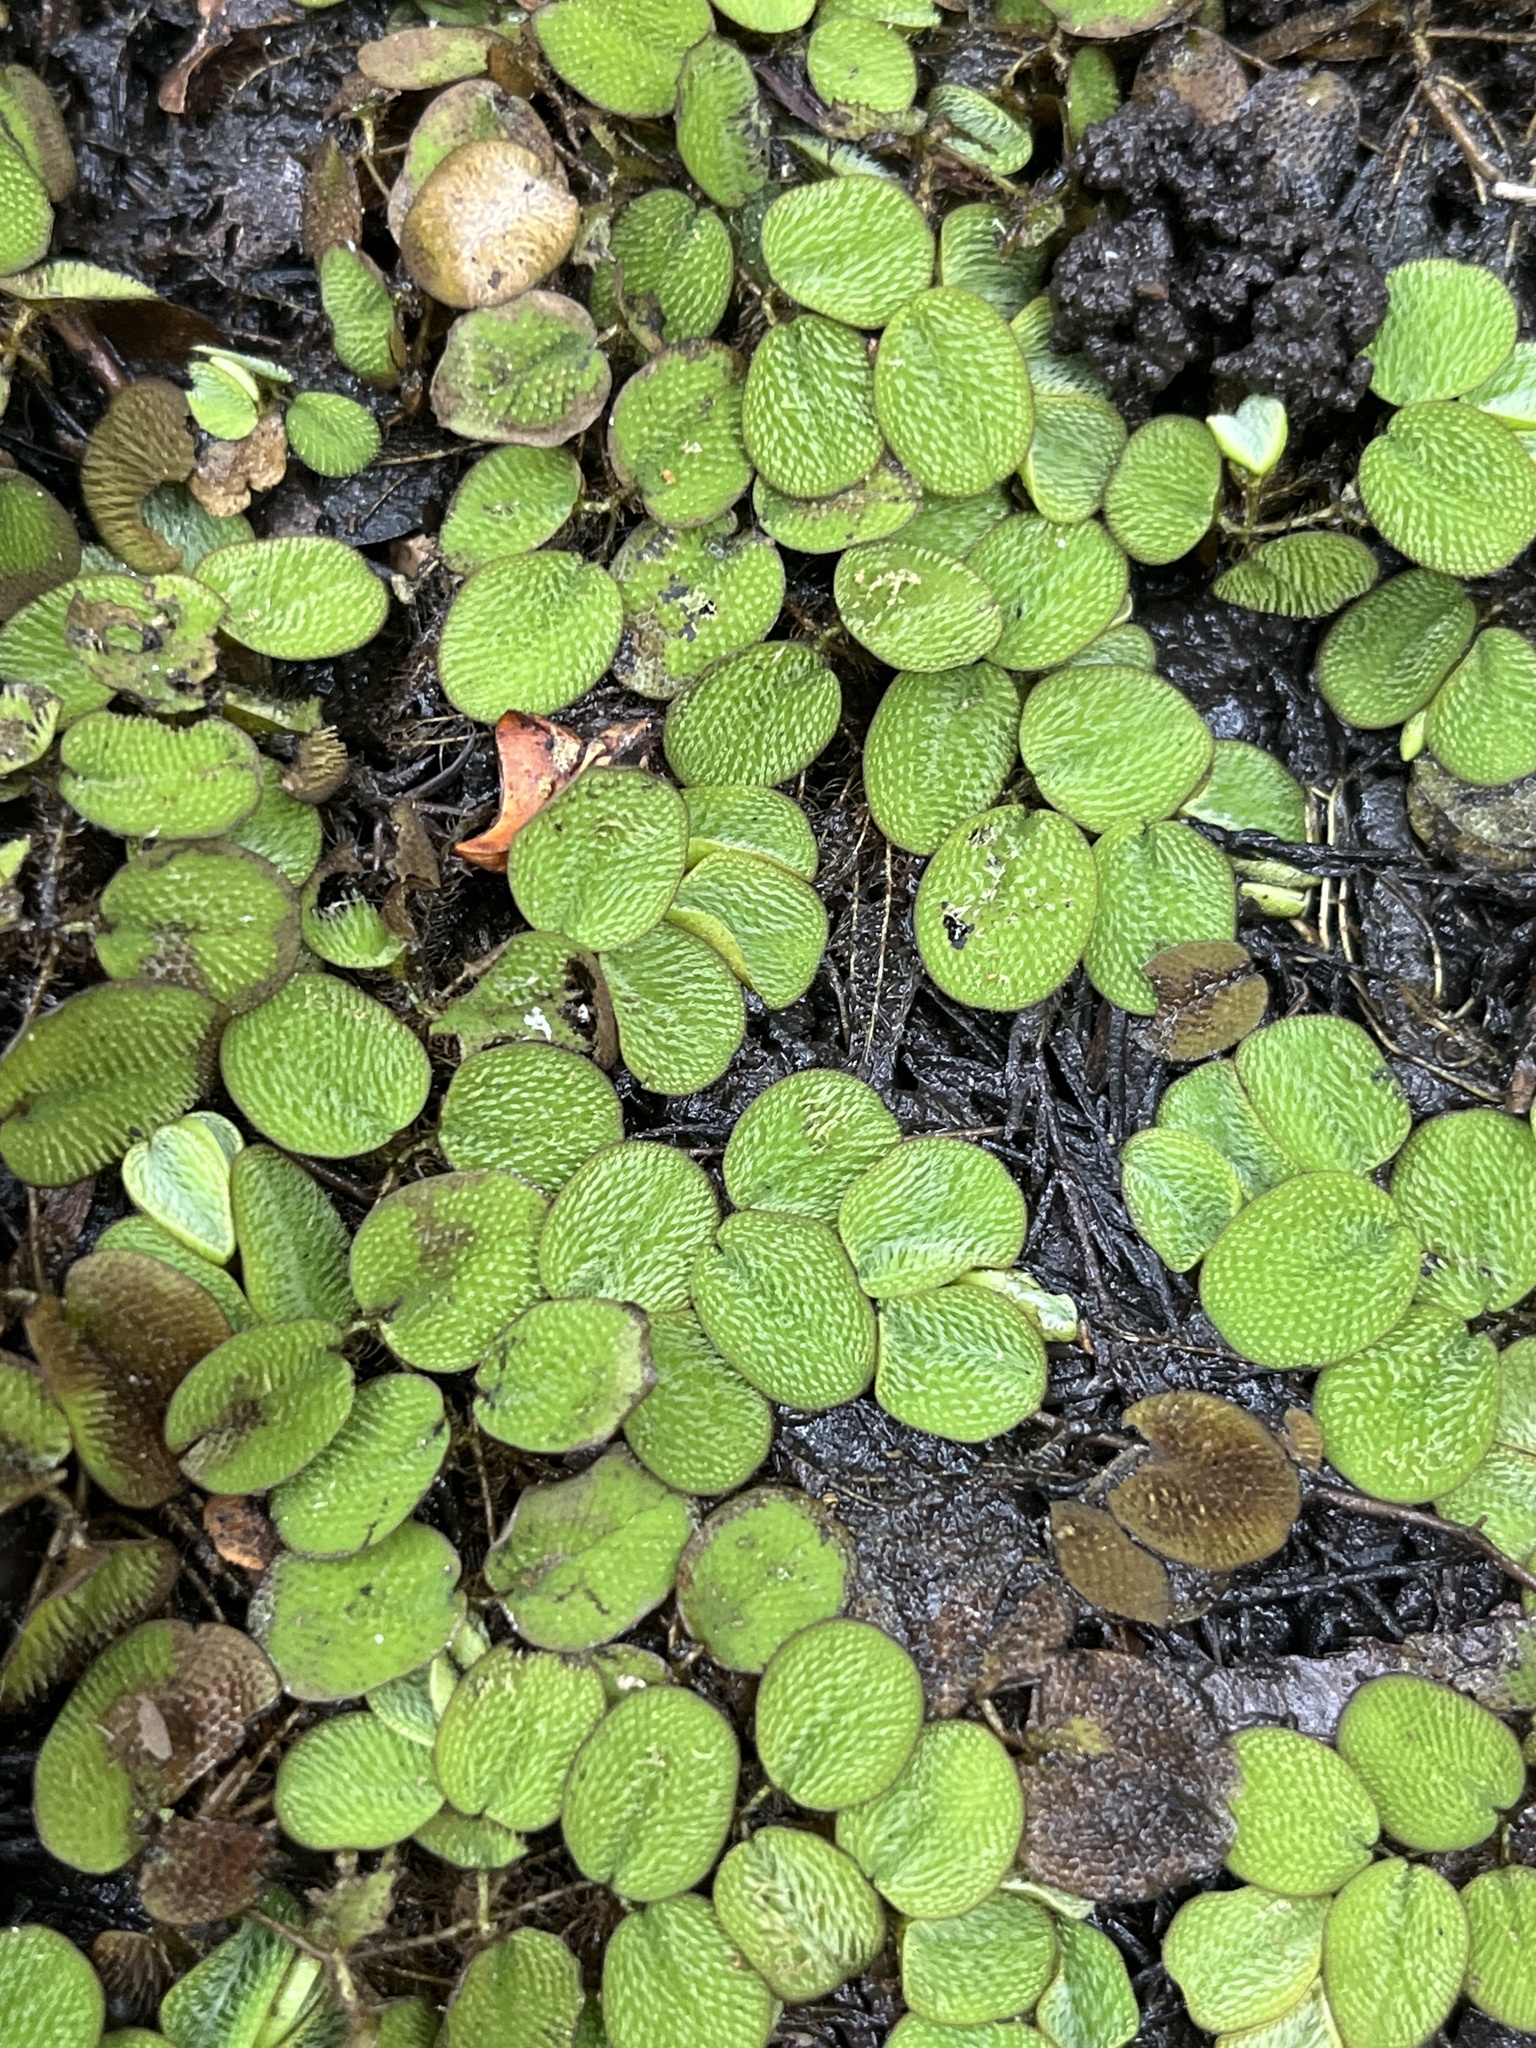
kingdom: Plantae
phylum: Tracheophyta
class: Polypodiopsida
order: Salviniales
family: Salviniaceae
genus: Salvinia
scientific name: Salvinia minima
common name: Water spangles
